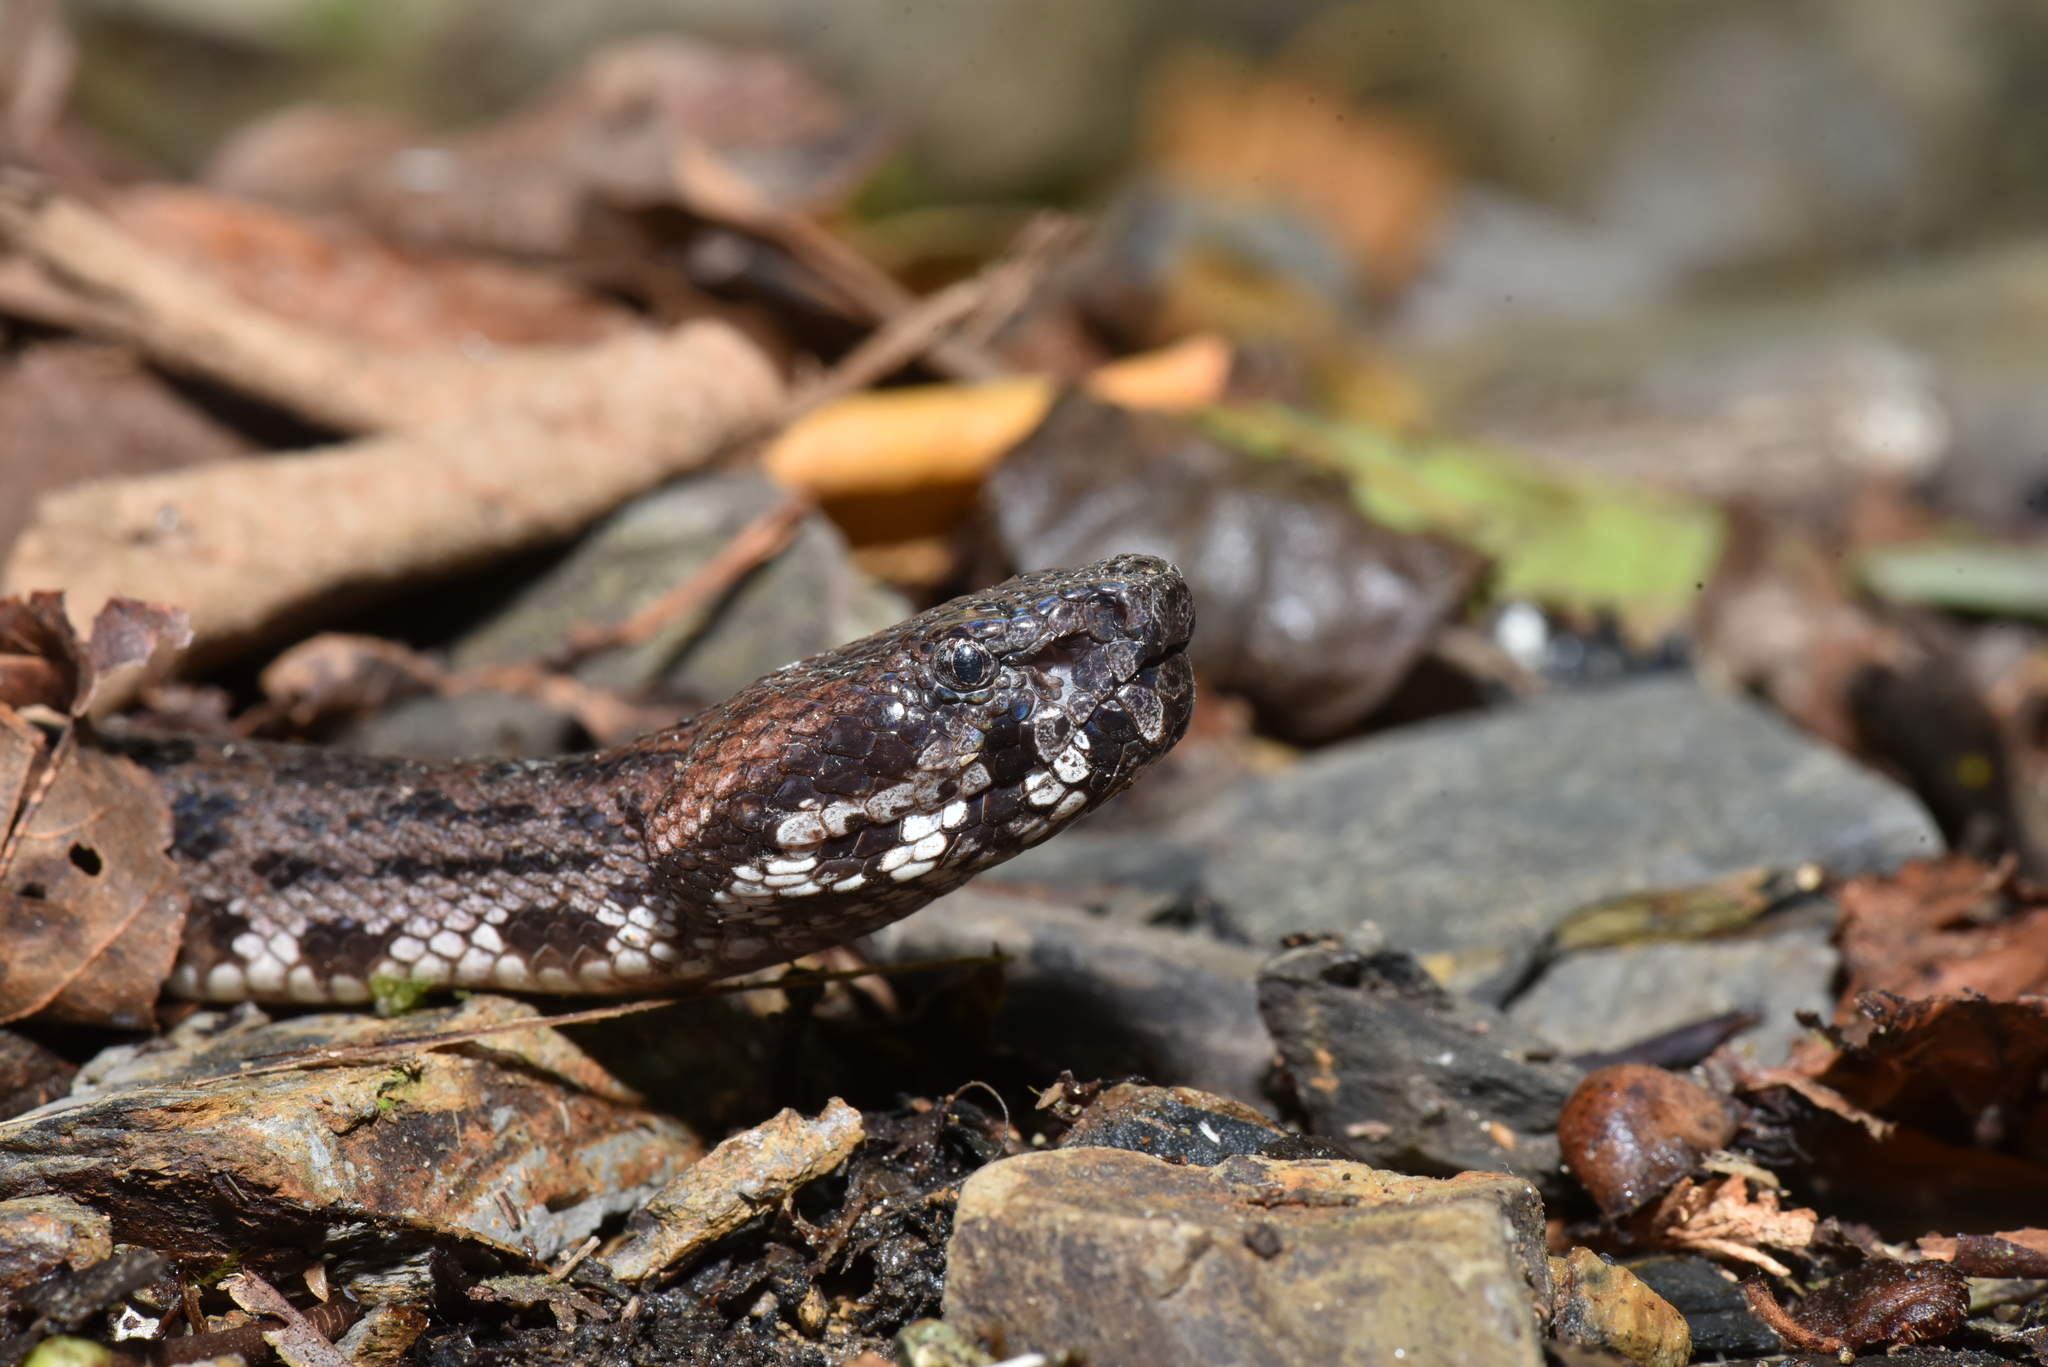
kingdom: Animalia
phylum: Chordata
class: Squamata
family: Viperidae
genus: Ovophis
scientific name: Ovophis makazayazaya
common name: Taiwan mountain pitviper
